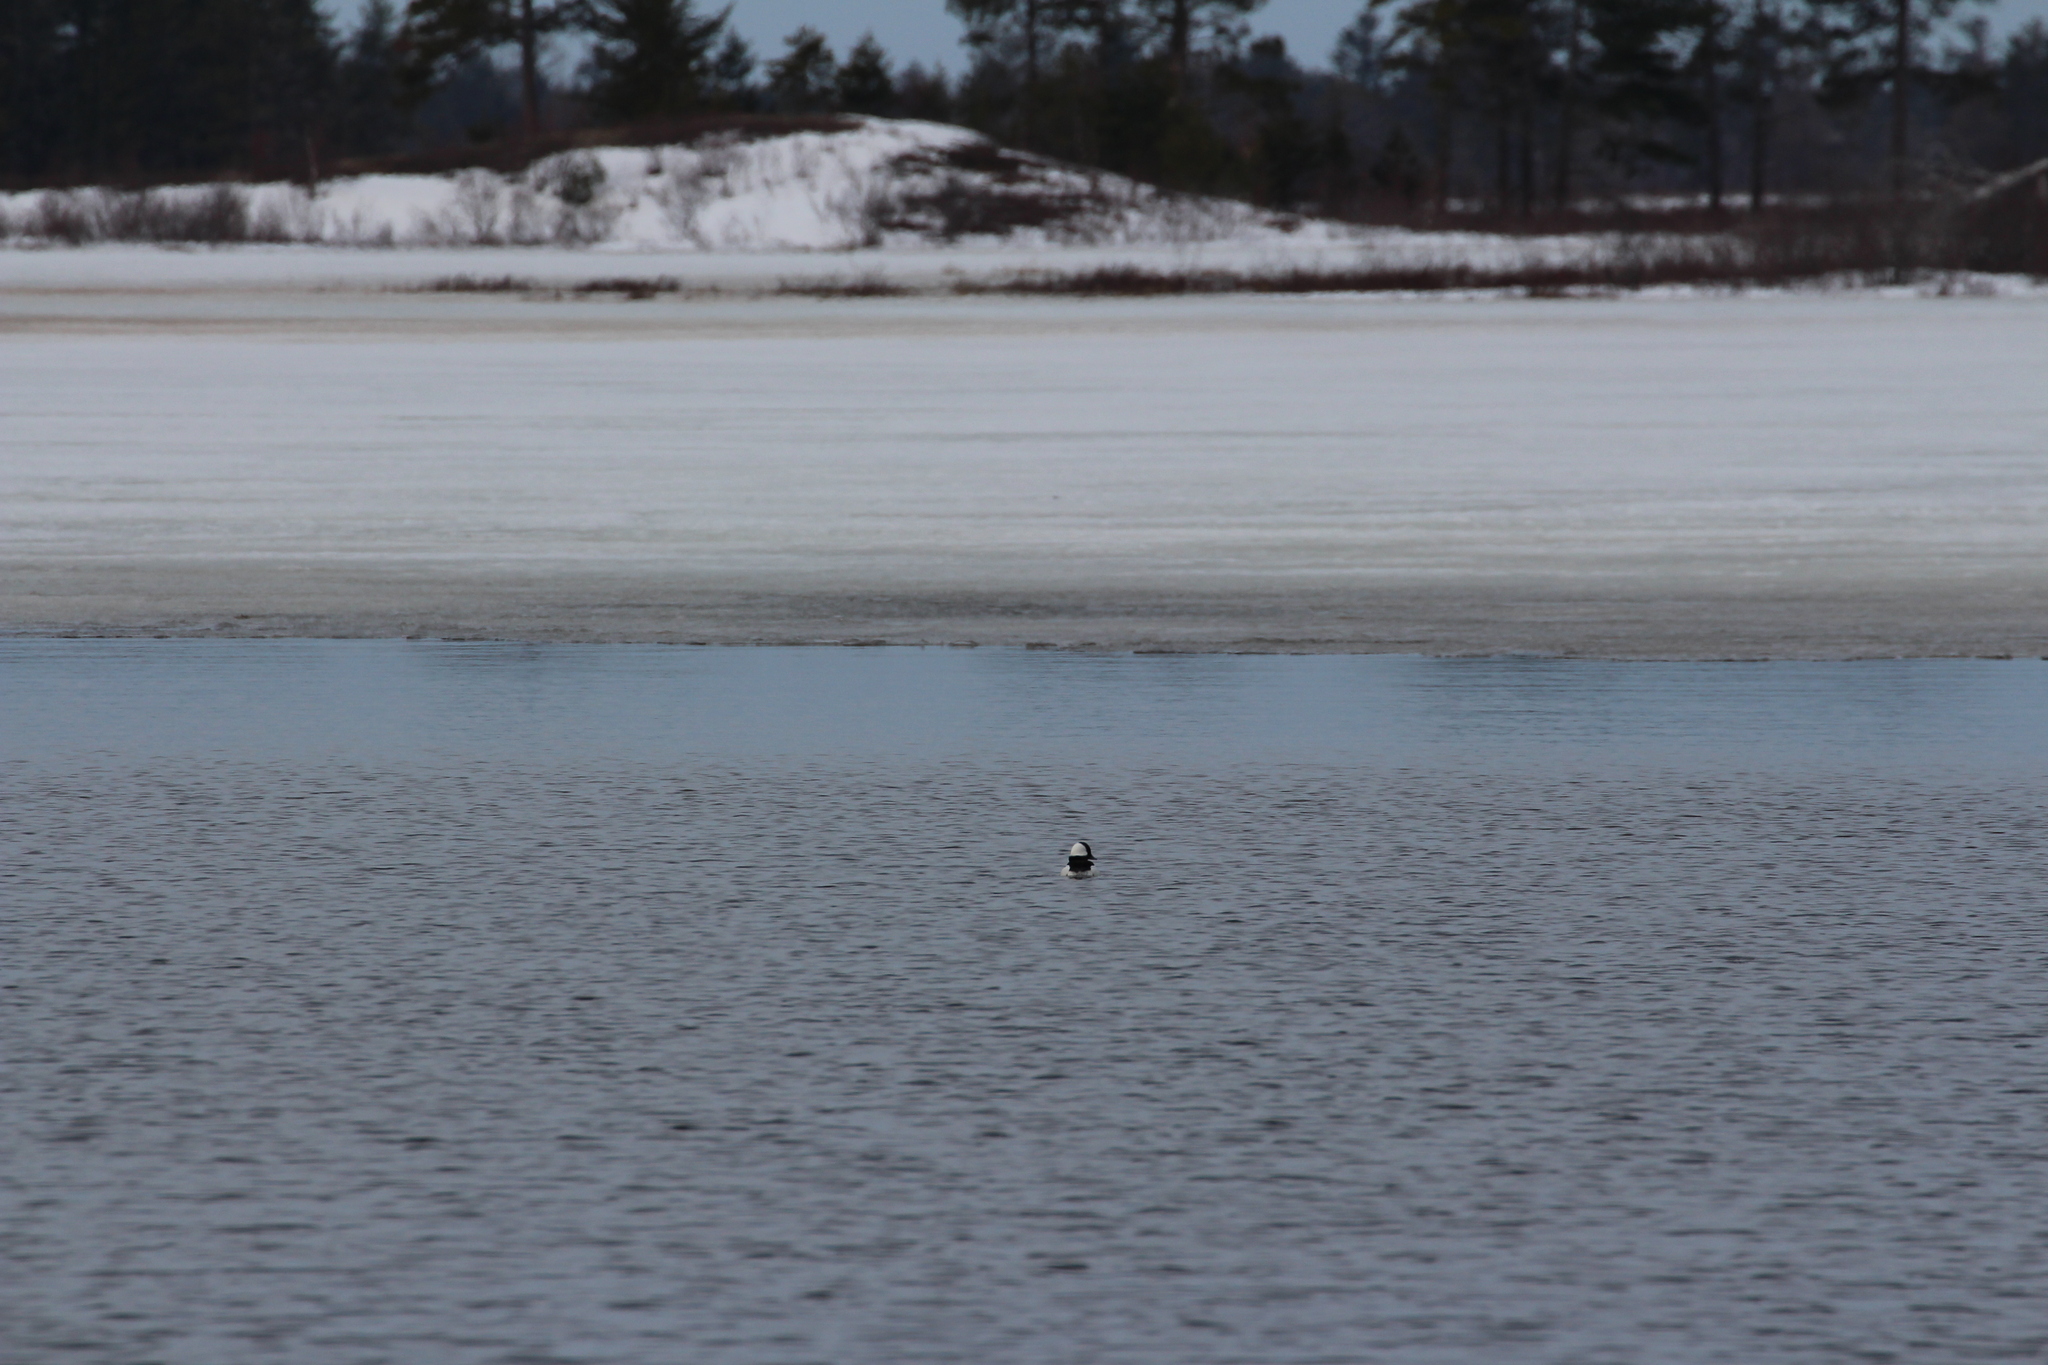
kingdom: Animalia
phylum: Chordata
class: Aves
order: Anseriformes
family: Anatidae
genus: Bucephala
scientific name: Bucephala albeola
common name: Bufflehead
